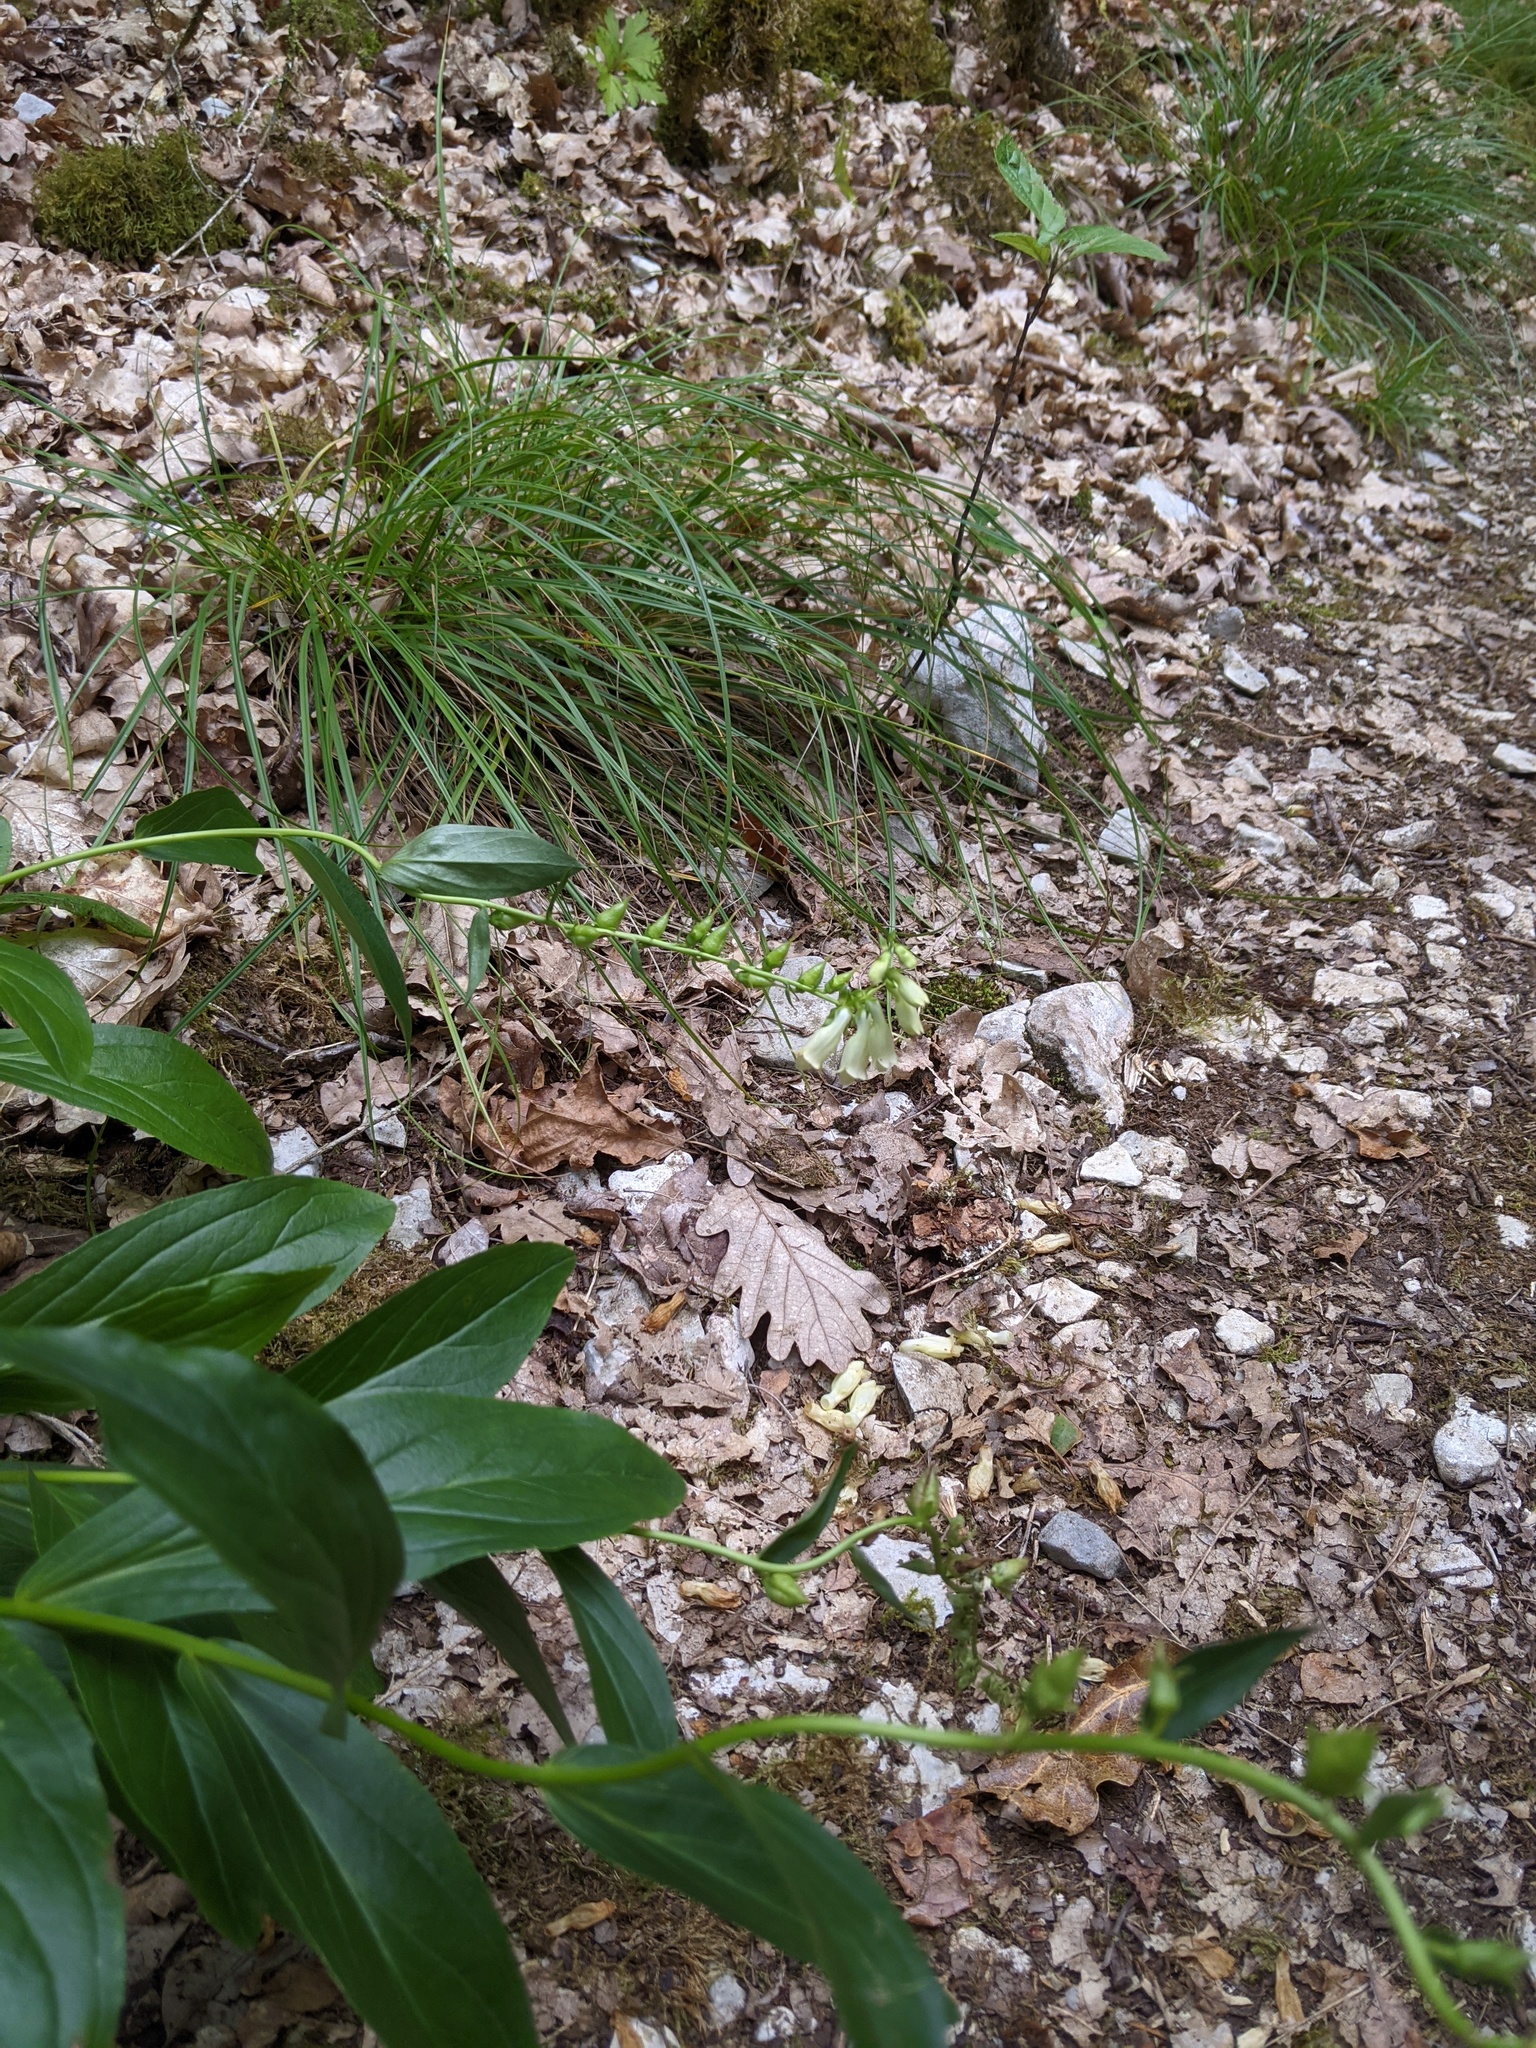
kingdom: Plantae
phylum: Tracheophyta
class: Magnoliopsida
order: Lamiales
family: Plantaginaceae
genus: Digitalis
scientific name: Digitalis lutea
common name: Straw foxglove
